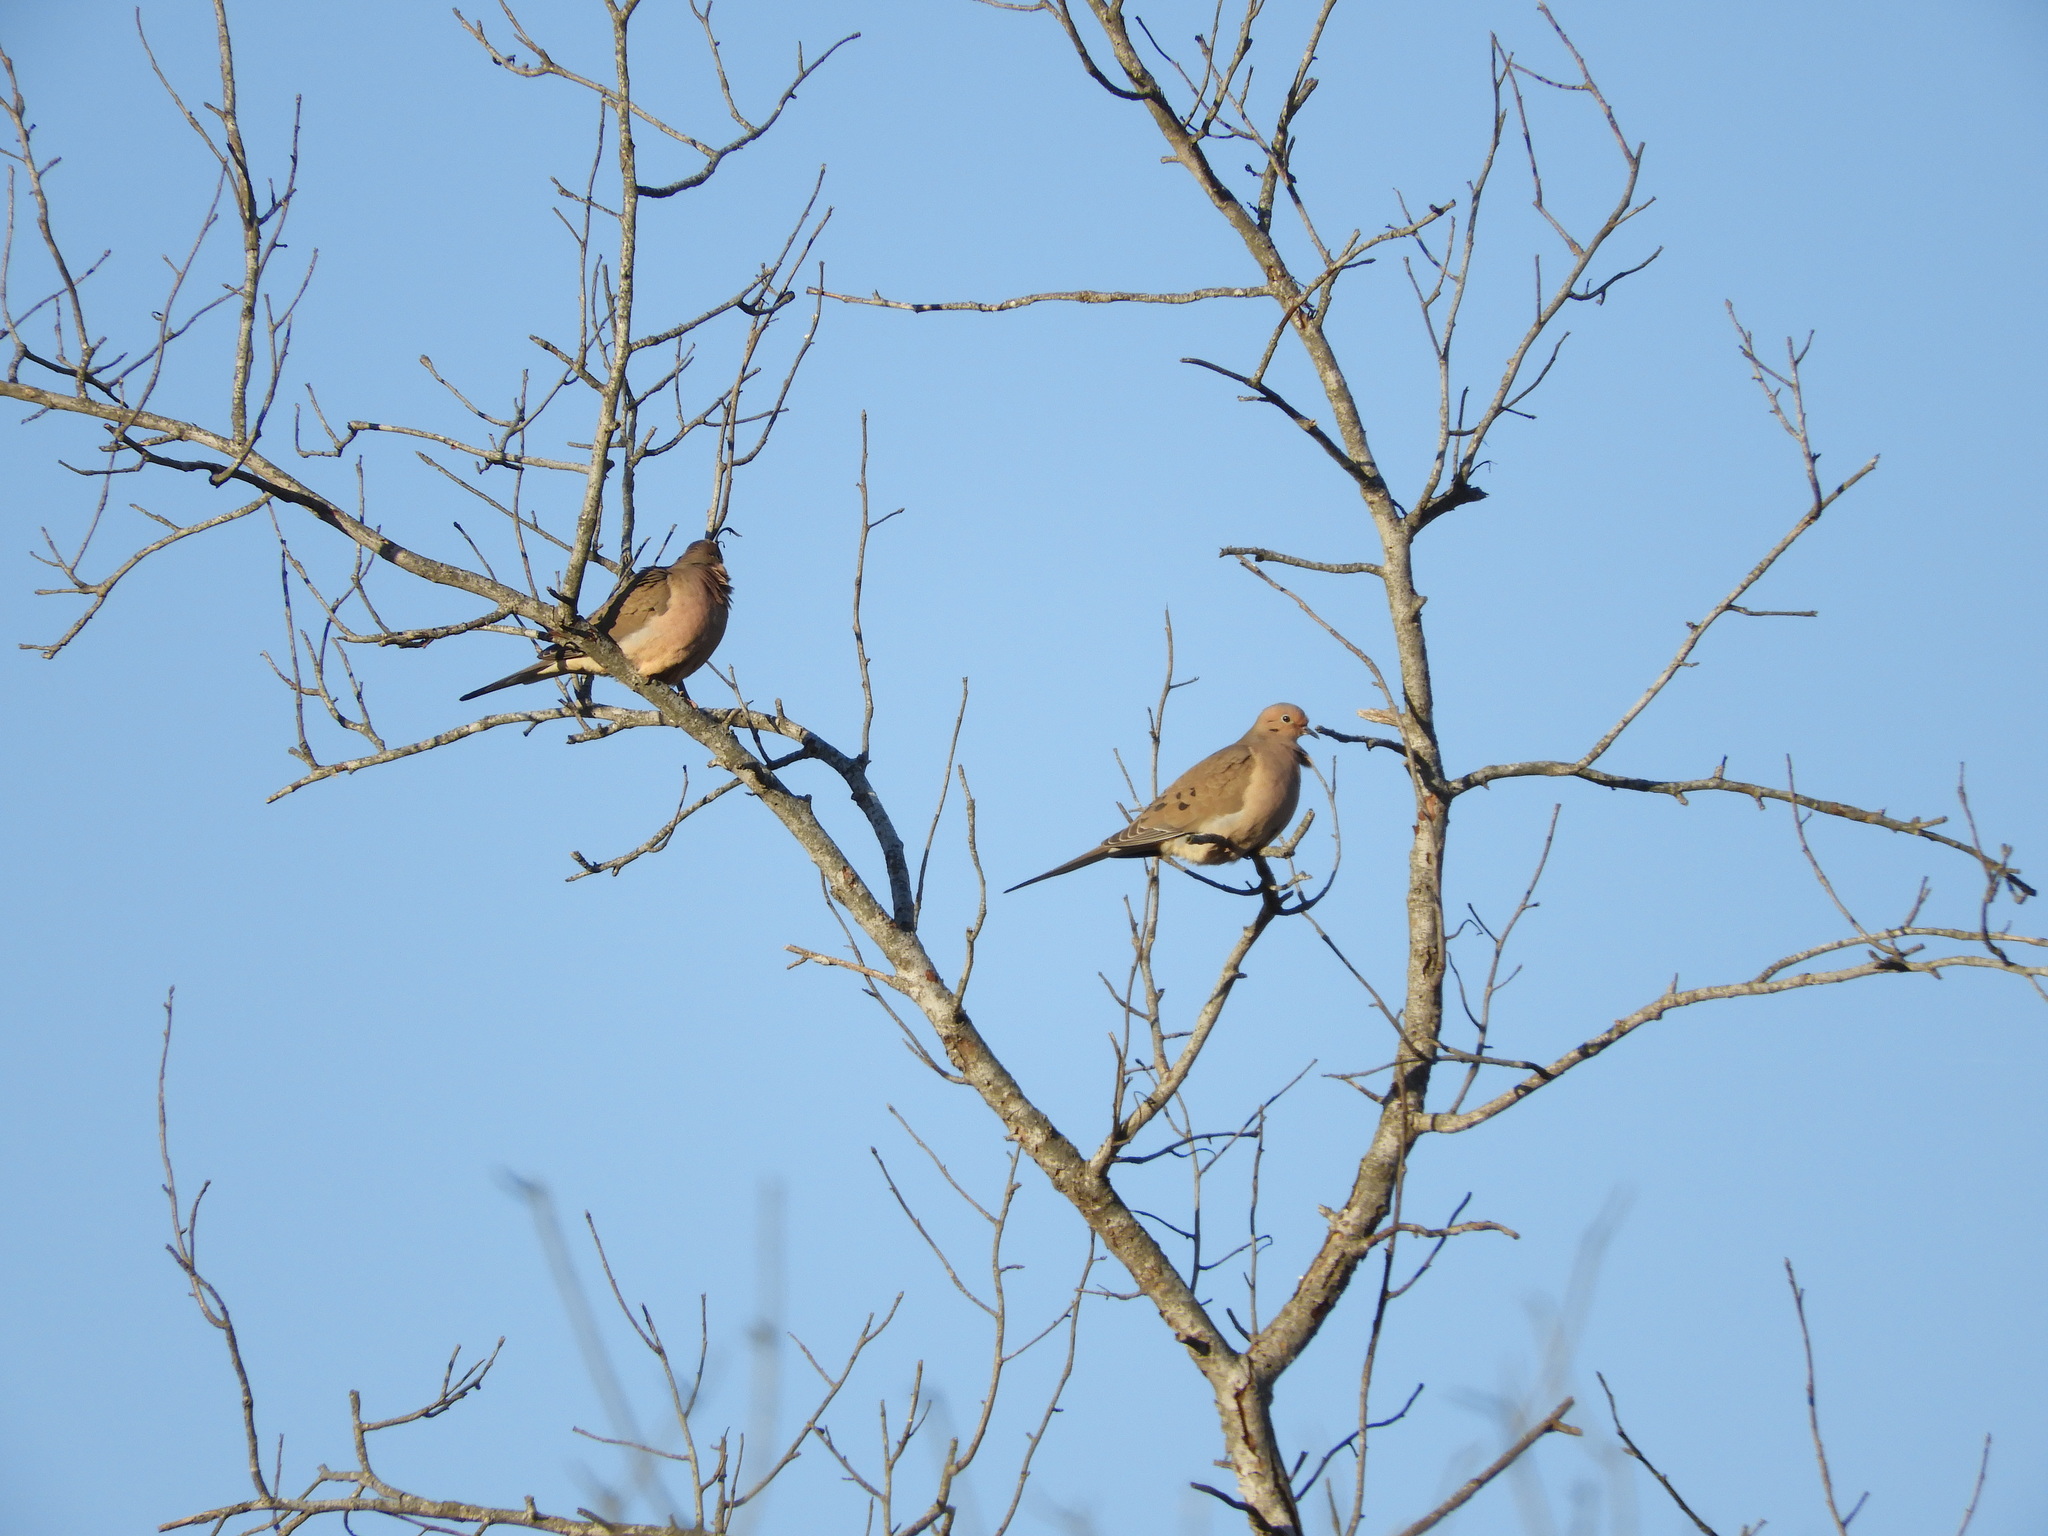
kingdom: Animalia
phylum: Chordata
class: Aves
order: Columbiformes
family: Columbidae
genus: Zenaida
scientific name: Zenaida macroura
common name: Mourning dove
